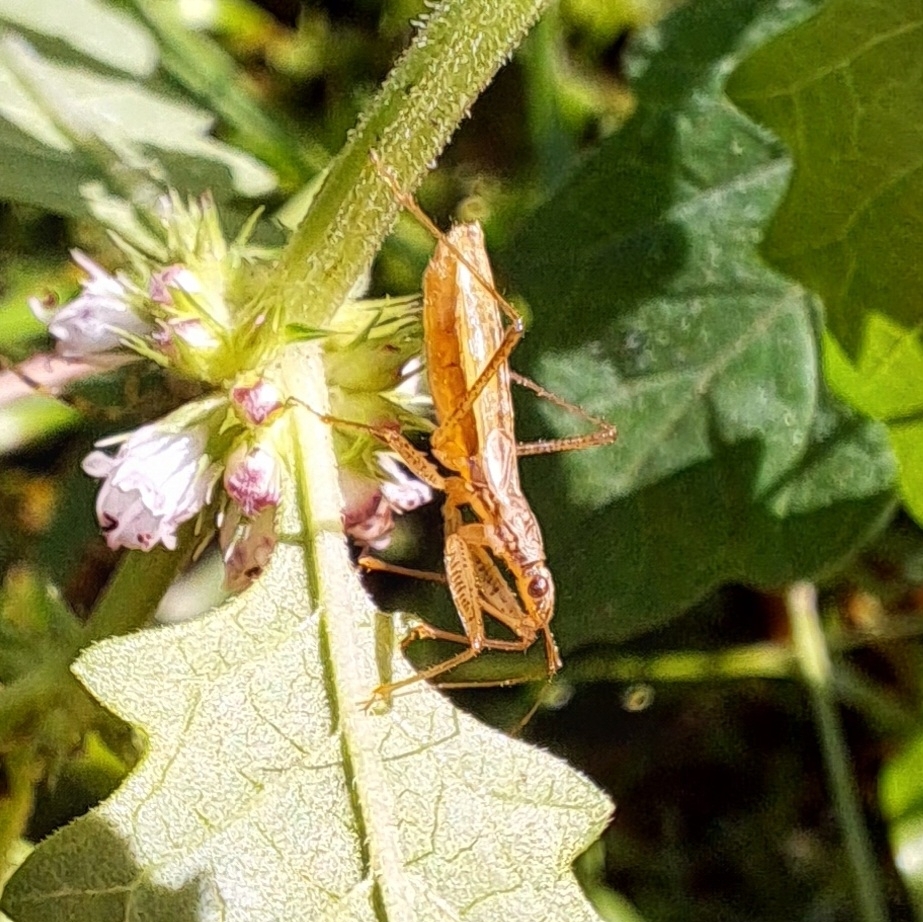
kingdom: Animalia
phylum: Arthropoda
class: Insecta
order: Hemiptera
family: Nabidae
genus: Nabis
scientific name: Nabis limbatus
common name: Marsh damselbug
